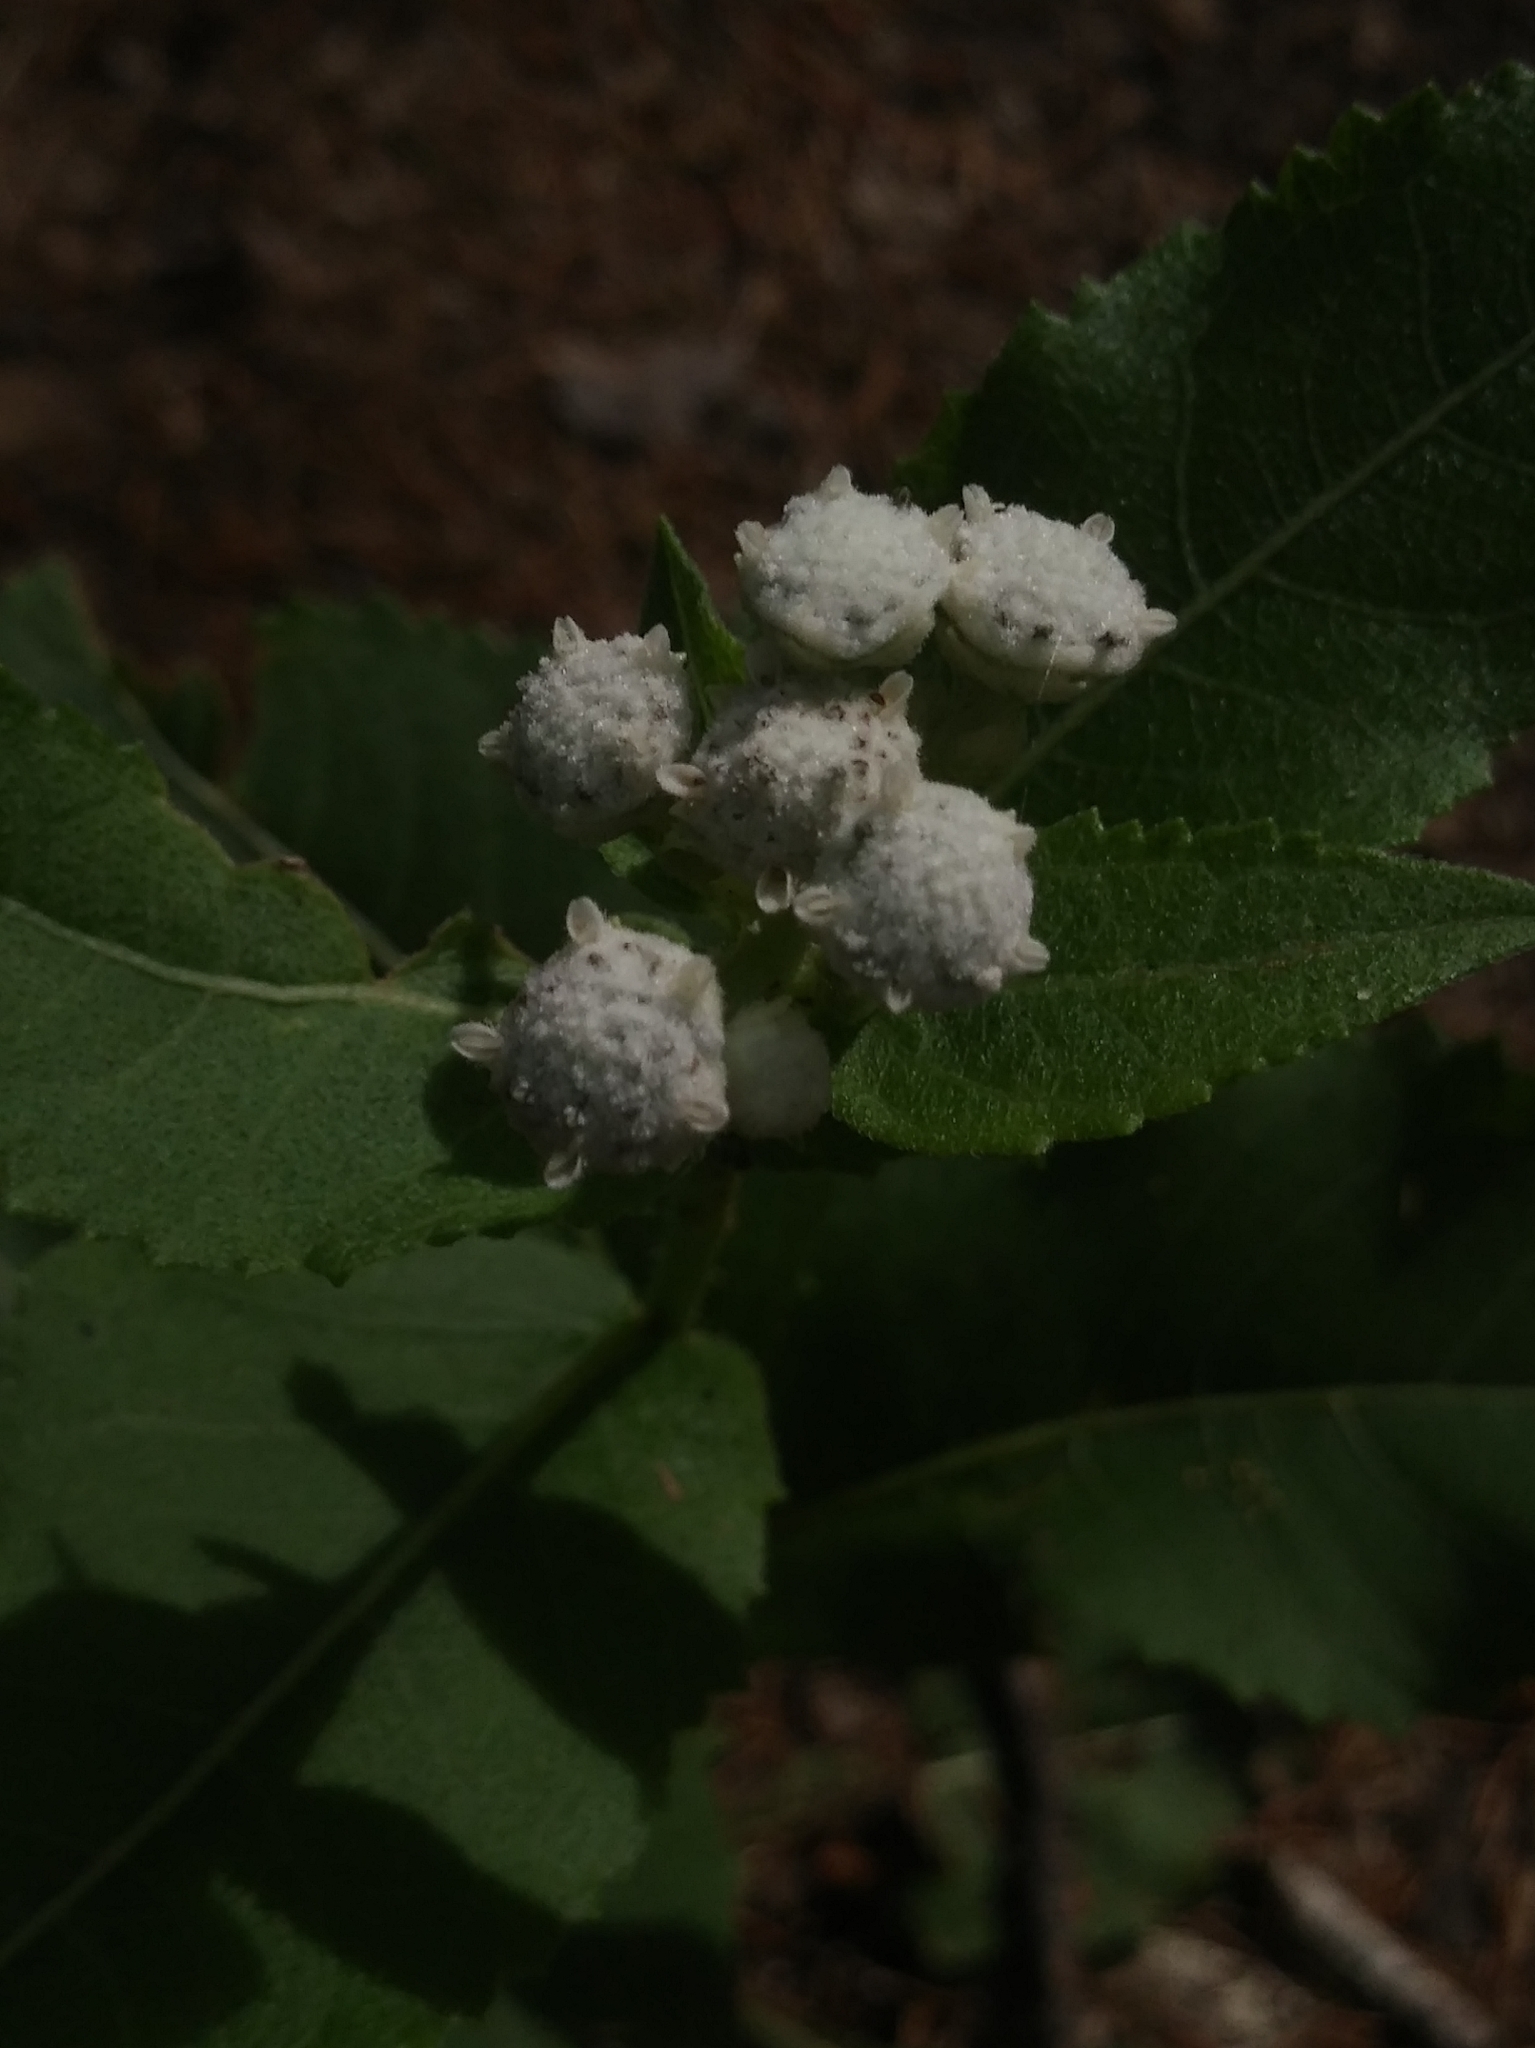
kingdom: Plantae
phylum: Tracheophyta
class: Magnoliopsida
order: Asterales
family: Asteraceae
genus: Parthenium
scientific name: Parthenium integrifolium
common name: American feverfew
